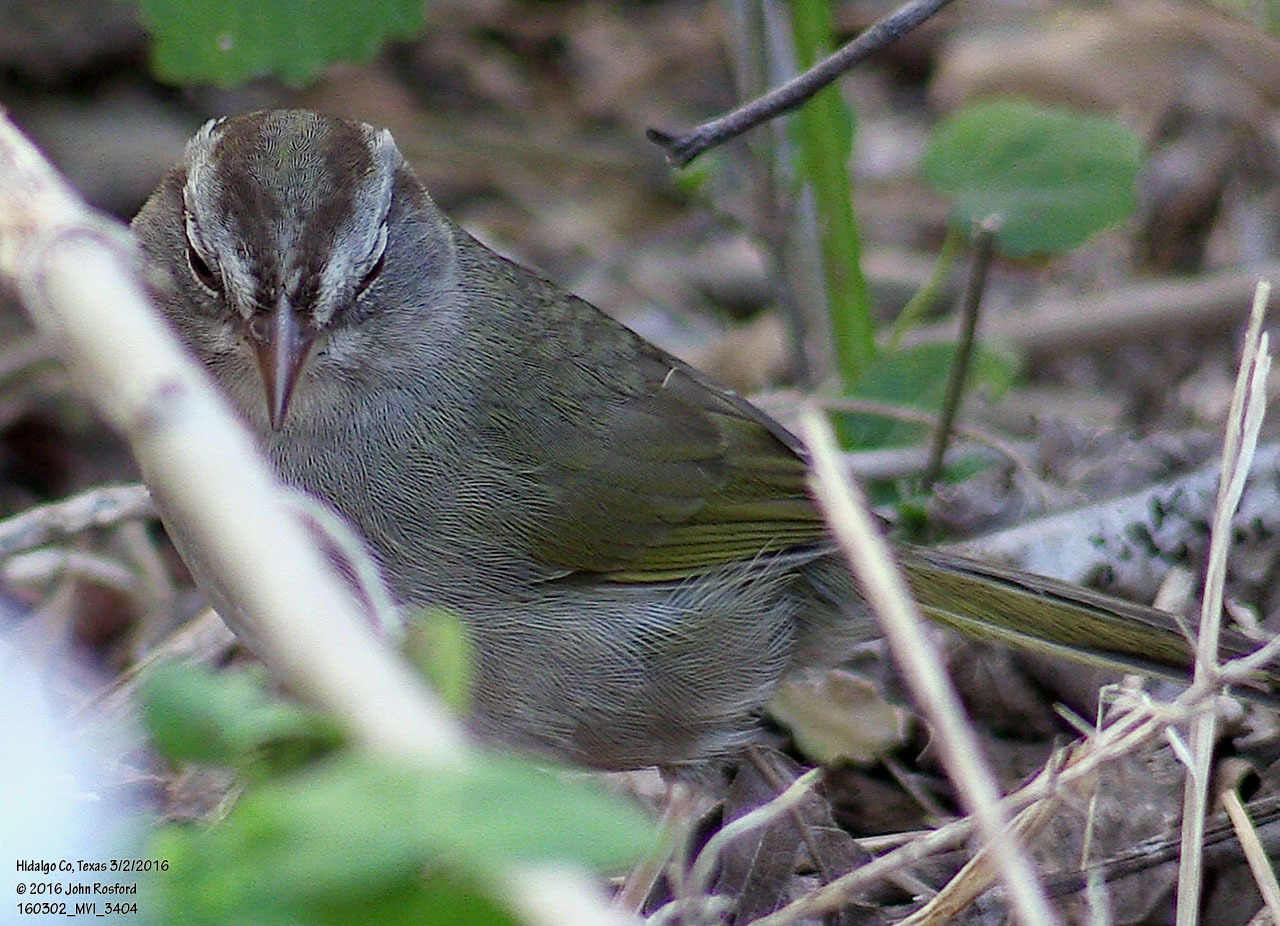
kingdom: Animalia
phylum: Chordata
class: Aves
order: Passeriformes
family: Passerellidae
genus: Arremonops
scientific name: Arremonops rufivirgatus
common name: Olive sparrow
